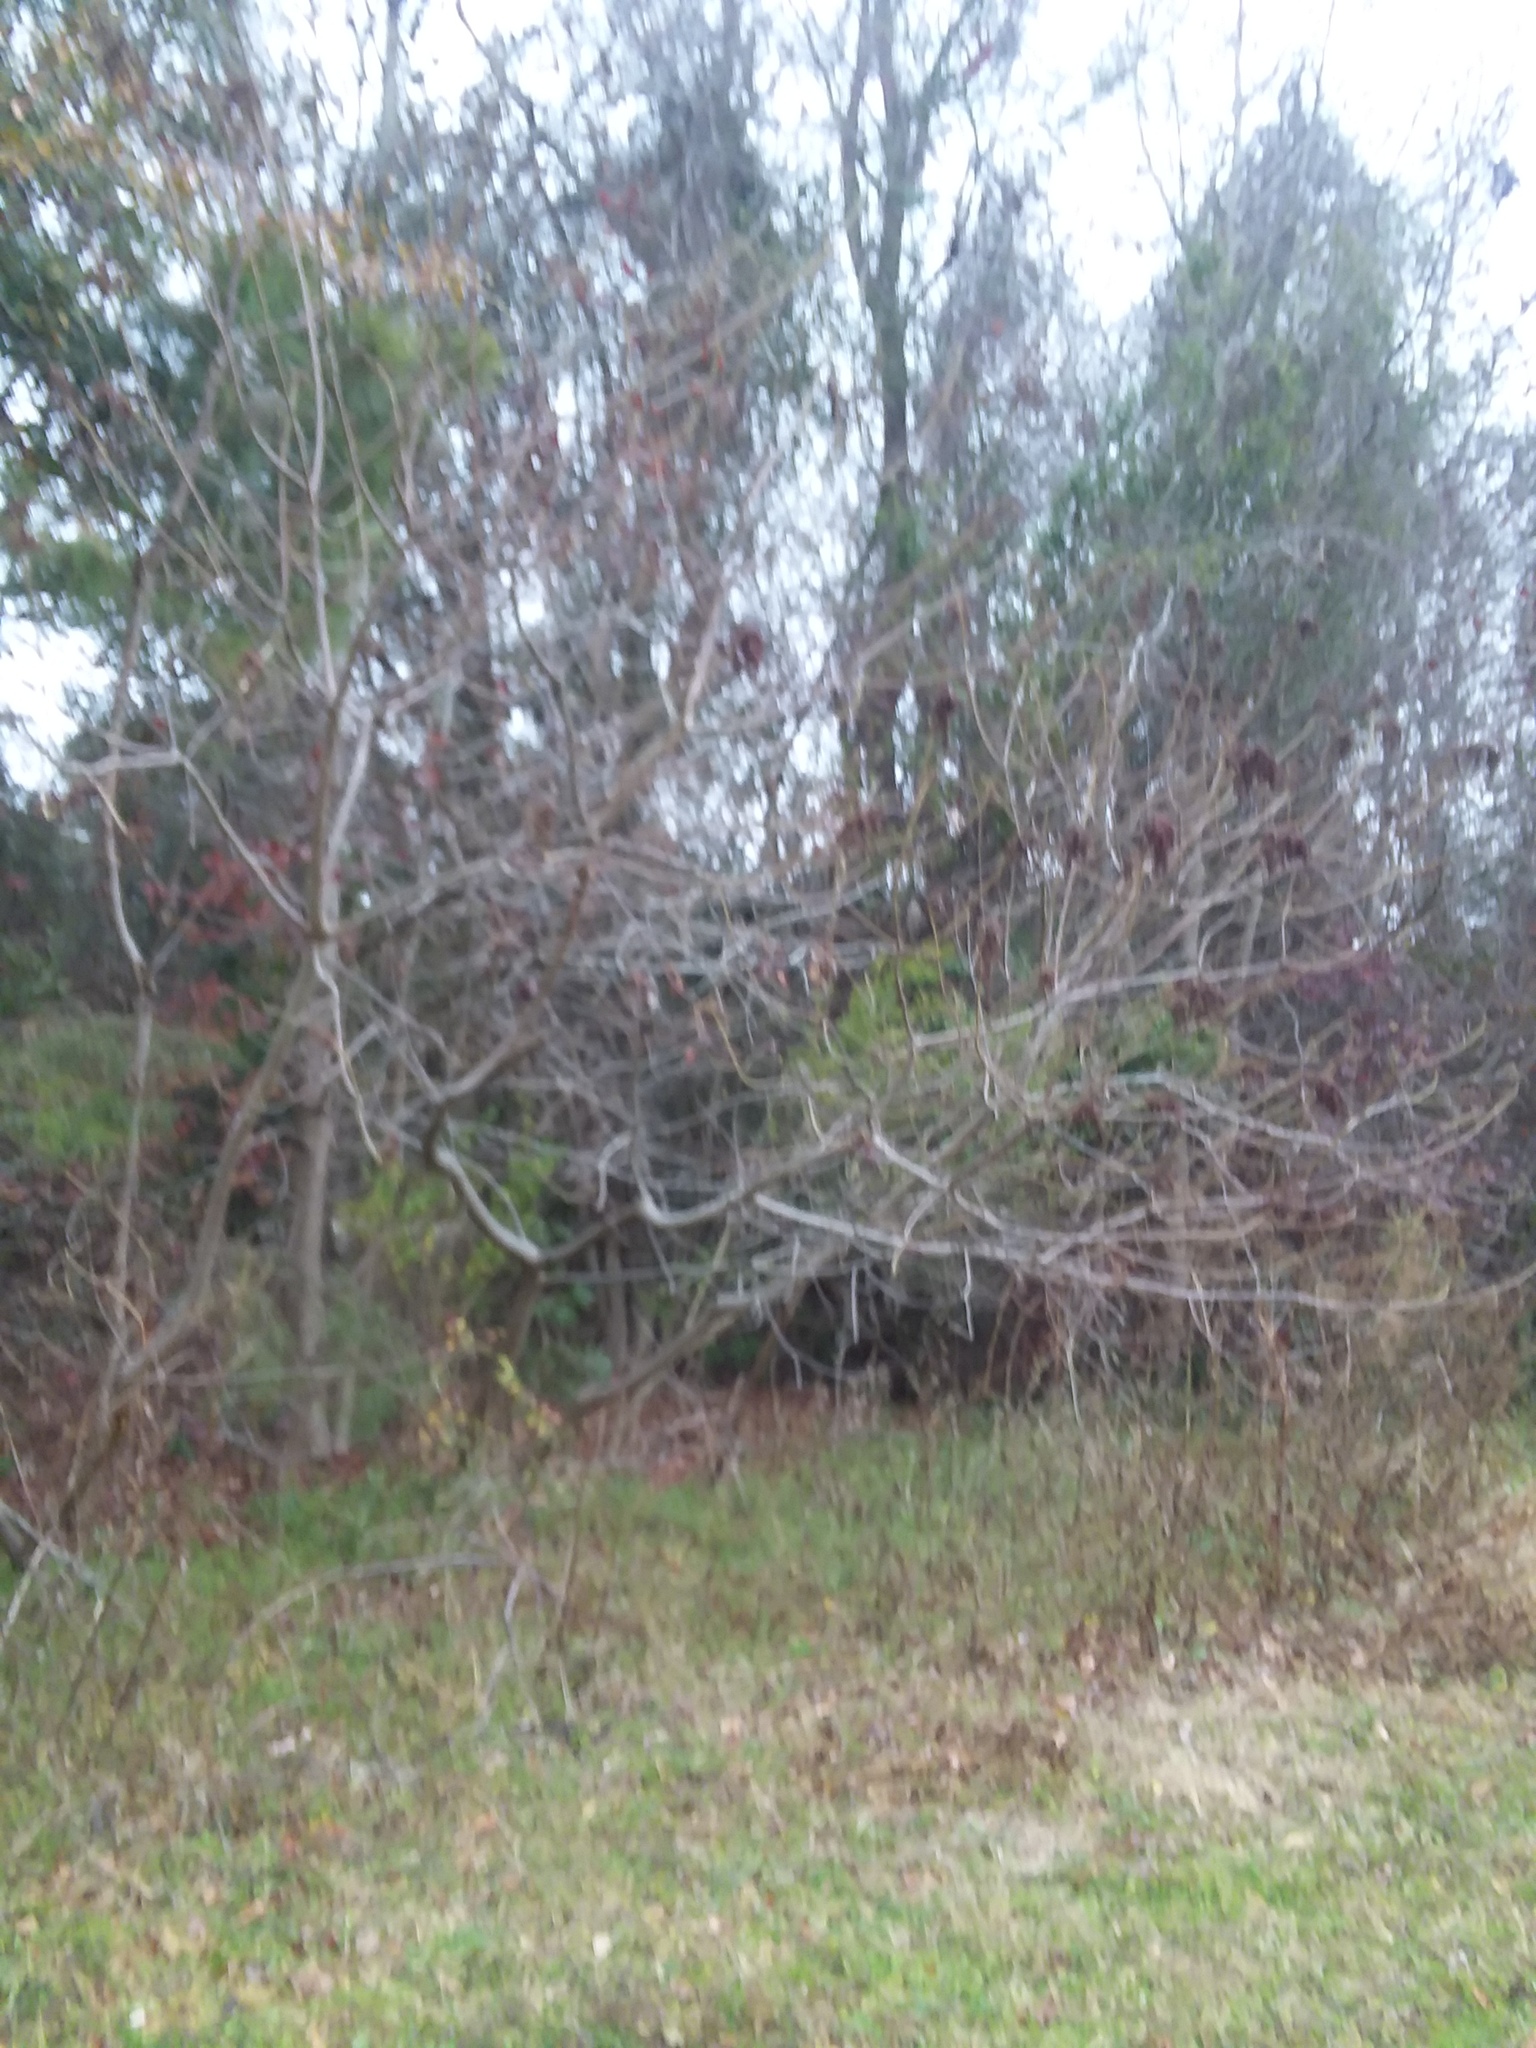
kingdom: Plantae
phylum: Tracheophyta
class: Magnoliopsida
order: Sapindales
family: Anacardiaceae
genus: Rhus
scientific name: Rhus copallina
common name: Shining sumac
